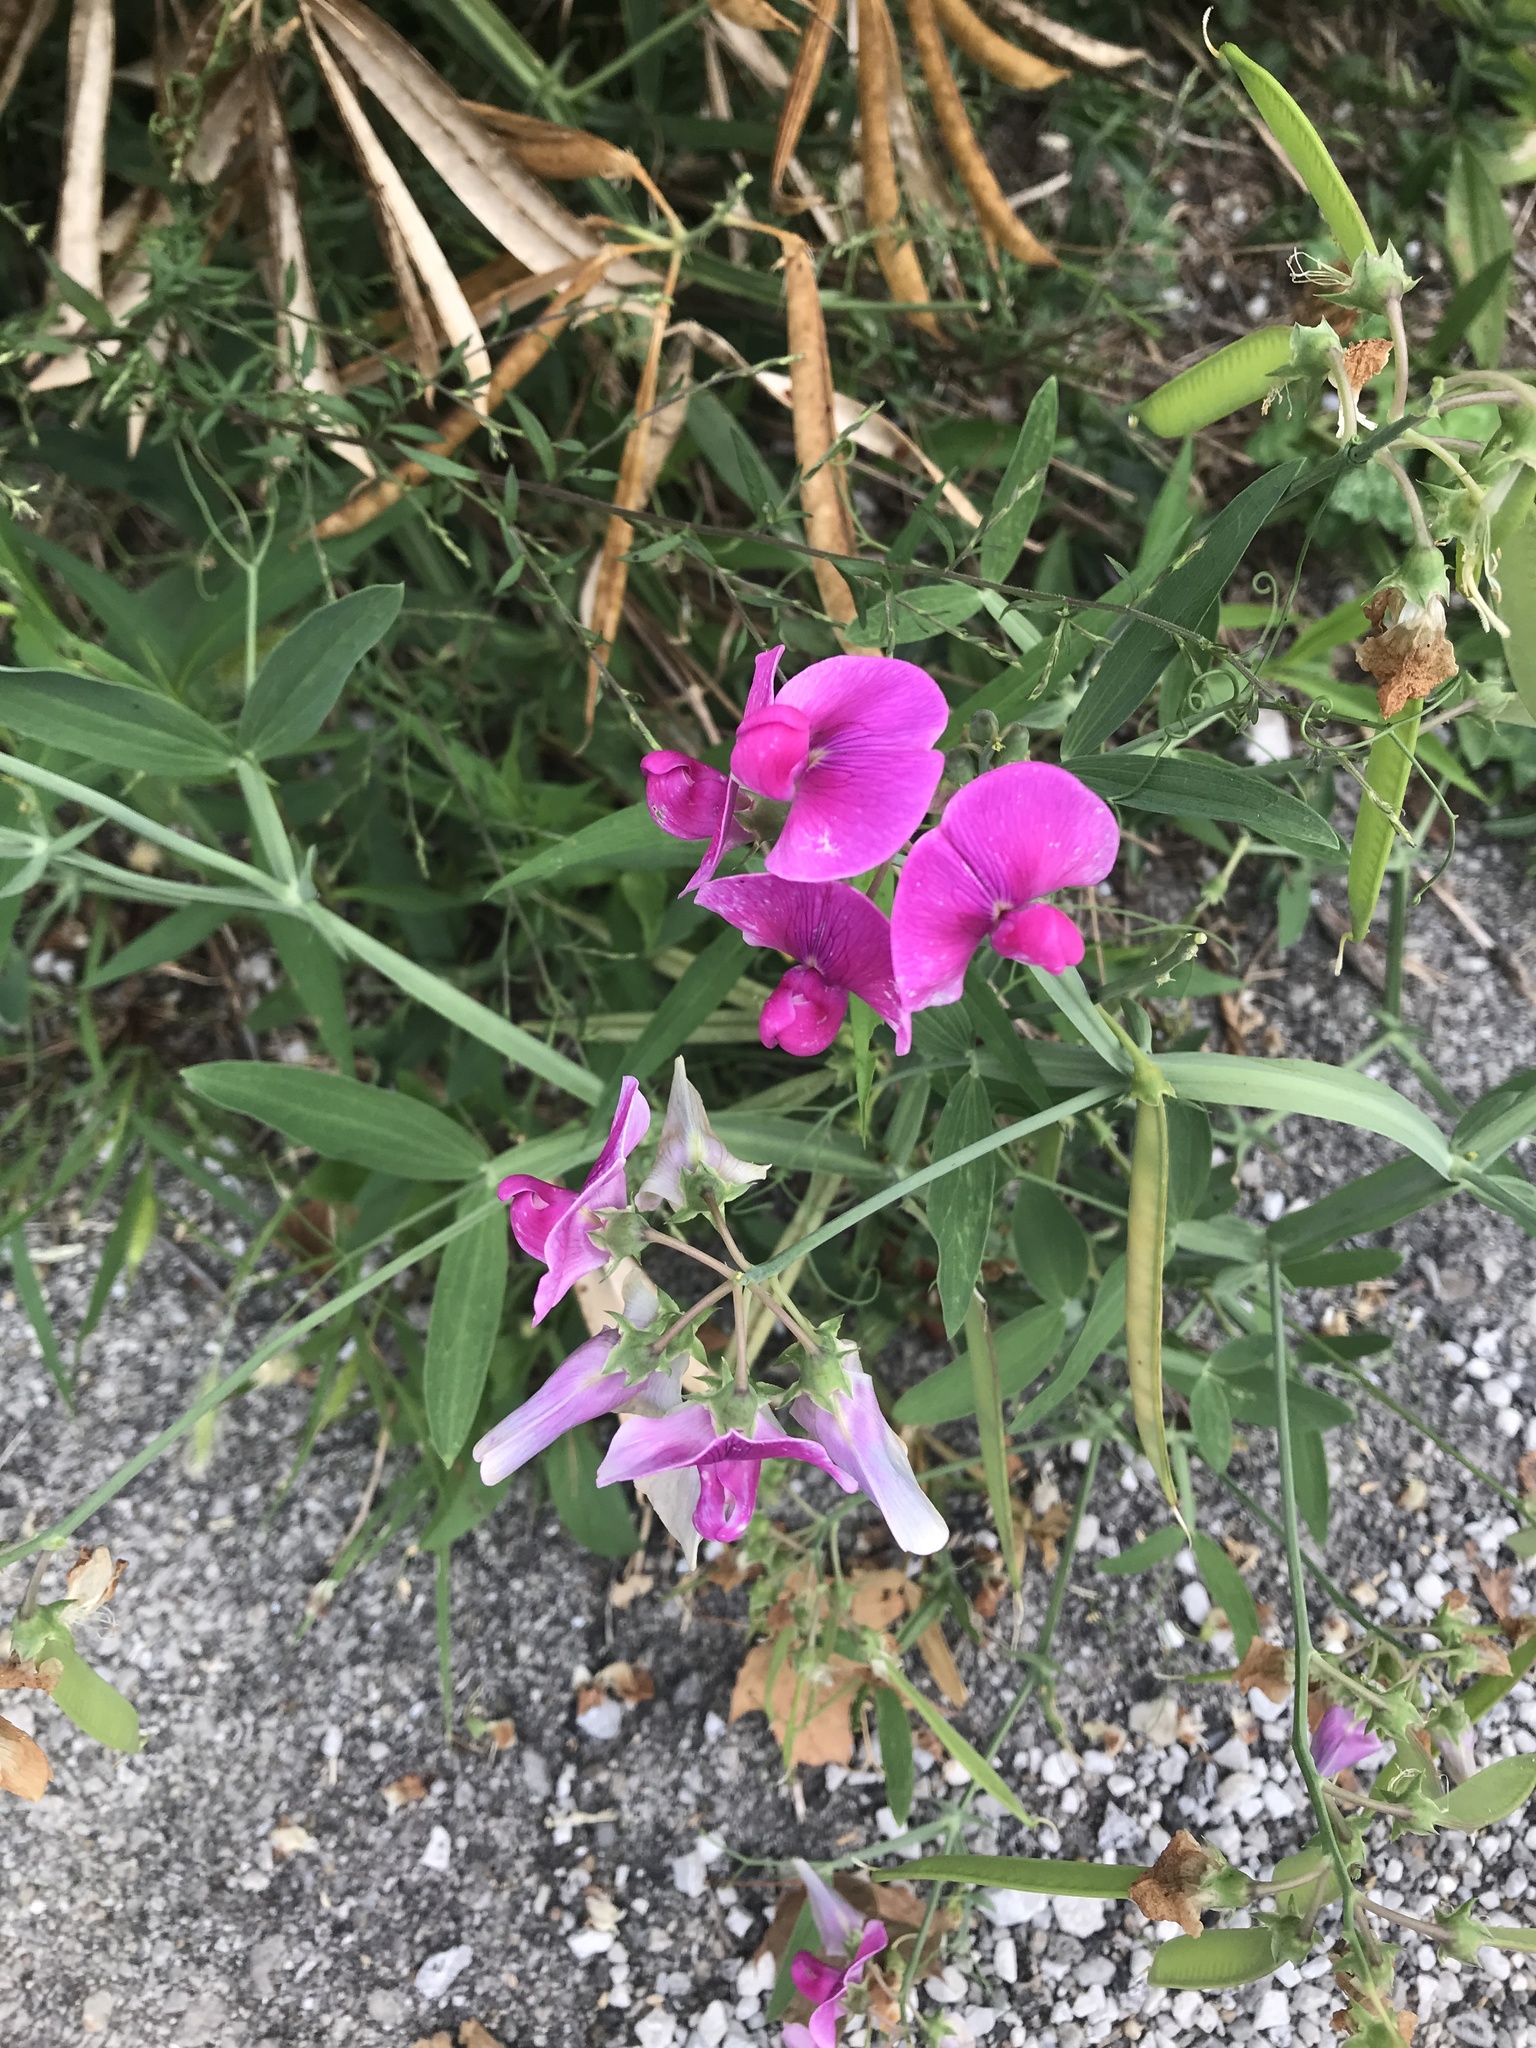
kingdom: Plantae
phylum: Tracheophyta
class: Magnoliopsida
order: Fabales
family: Fabaceae
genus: Lathyrus
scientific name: Lathyrus latifolius
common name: Perennial pea
